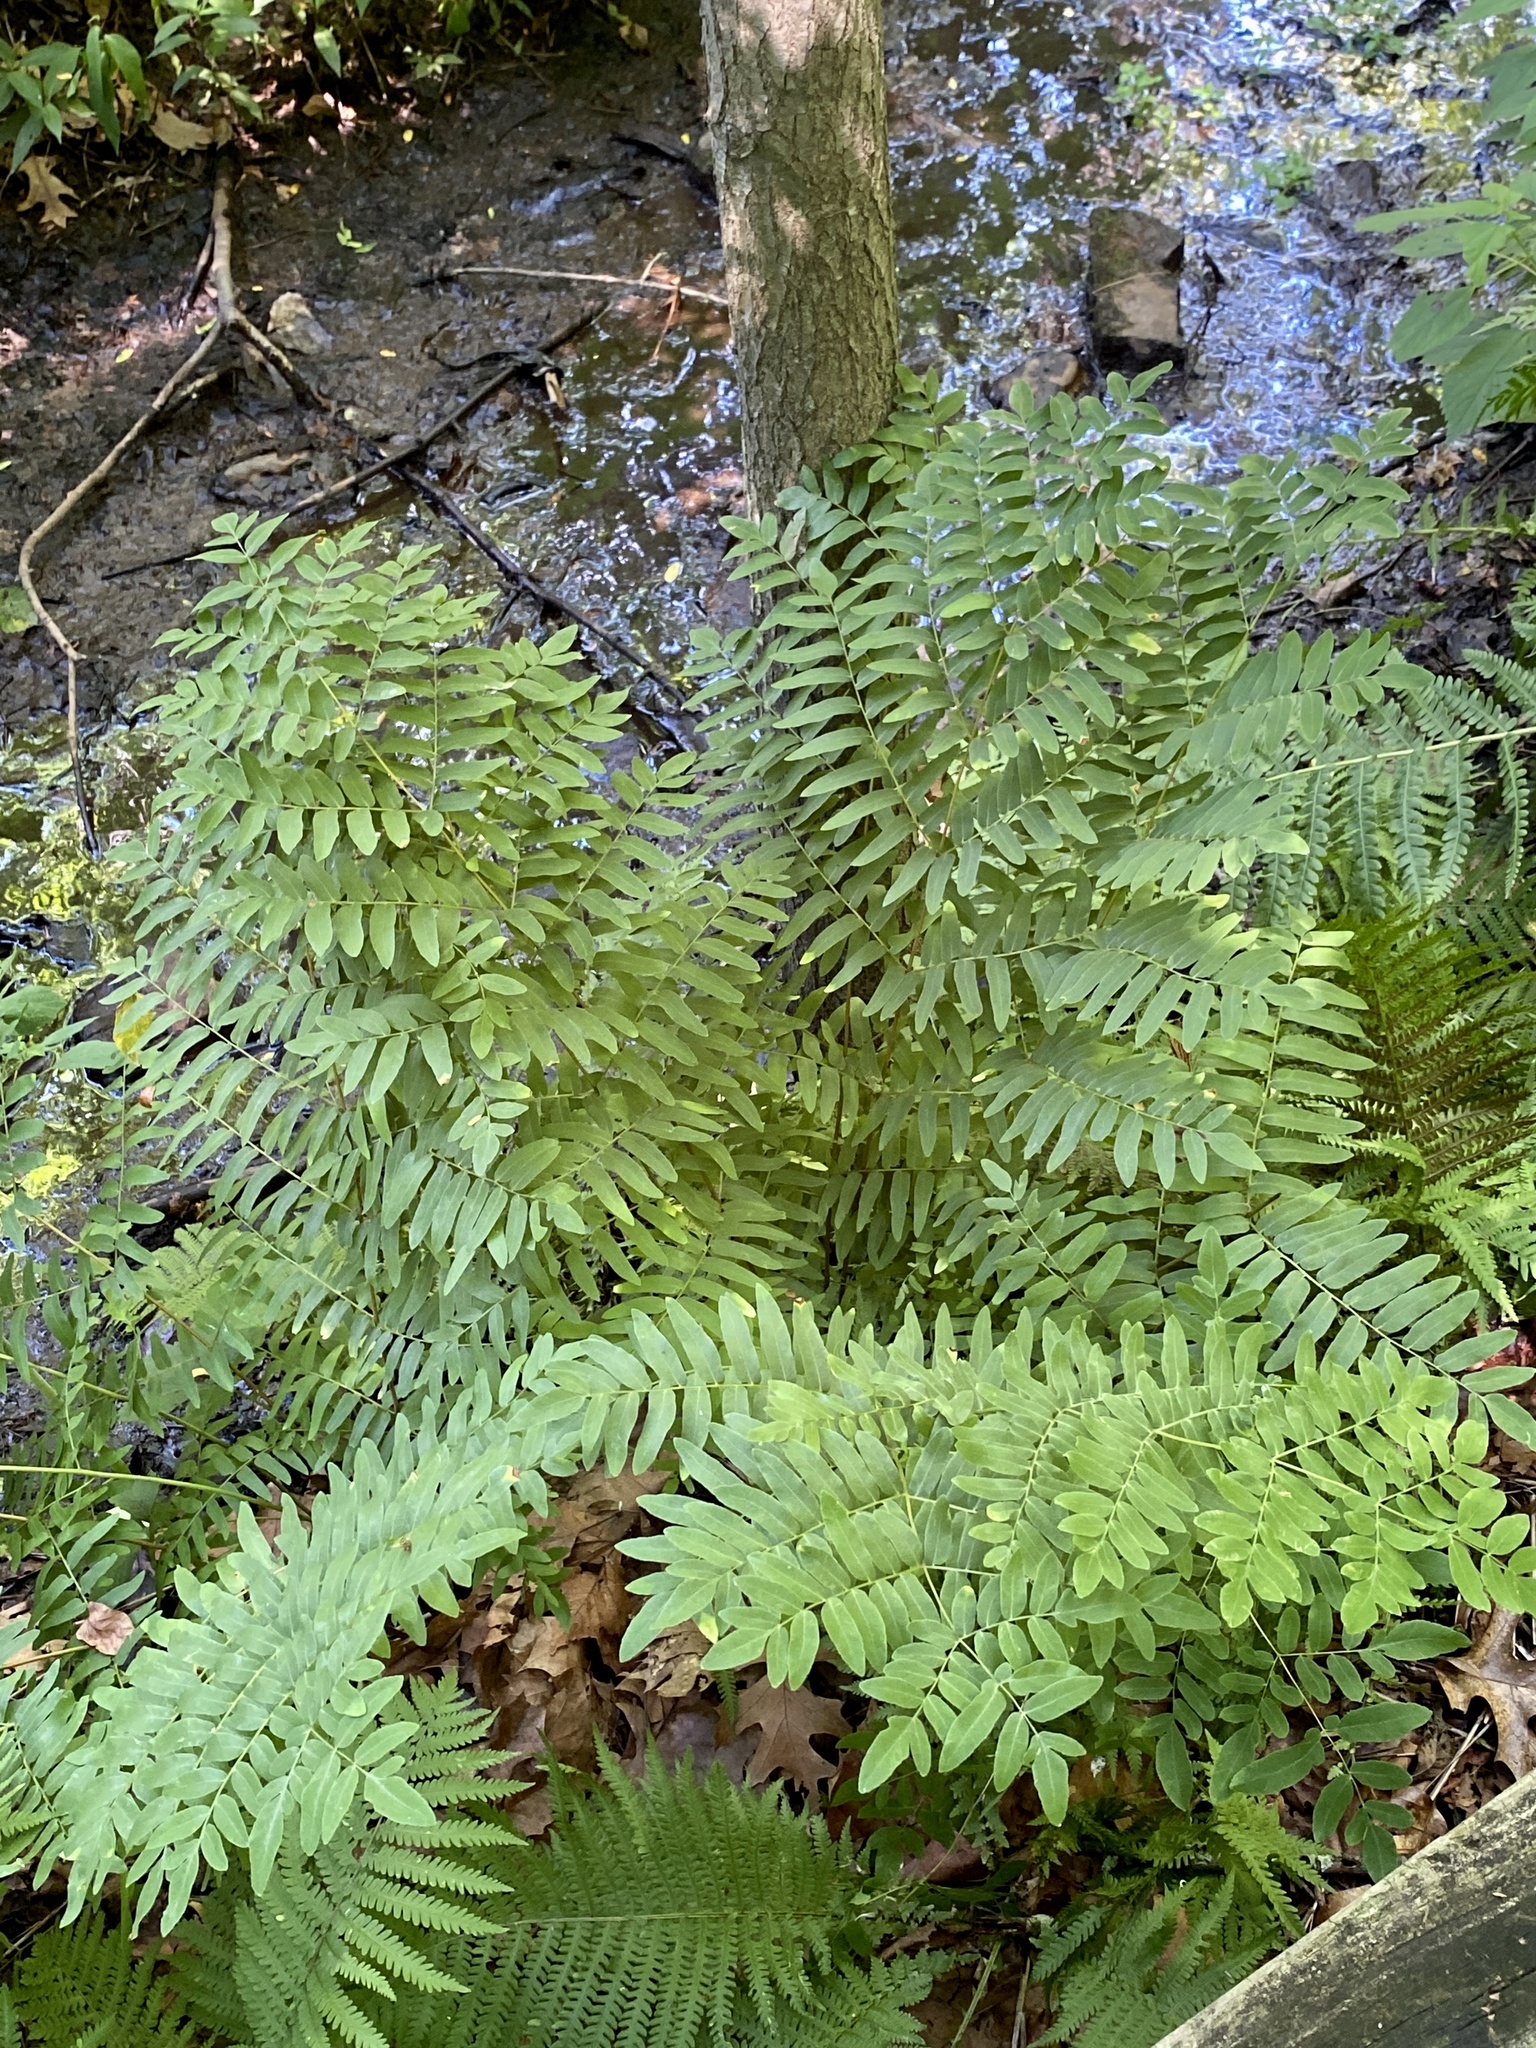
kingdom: Plantae
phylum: Tracheophyta
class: Polypodiopsida
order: Osmundales
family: Osmundaceae
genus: Osmunda
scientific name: Osmunda spectabilis
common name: American royal fern
